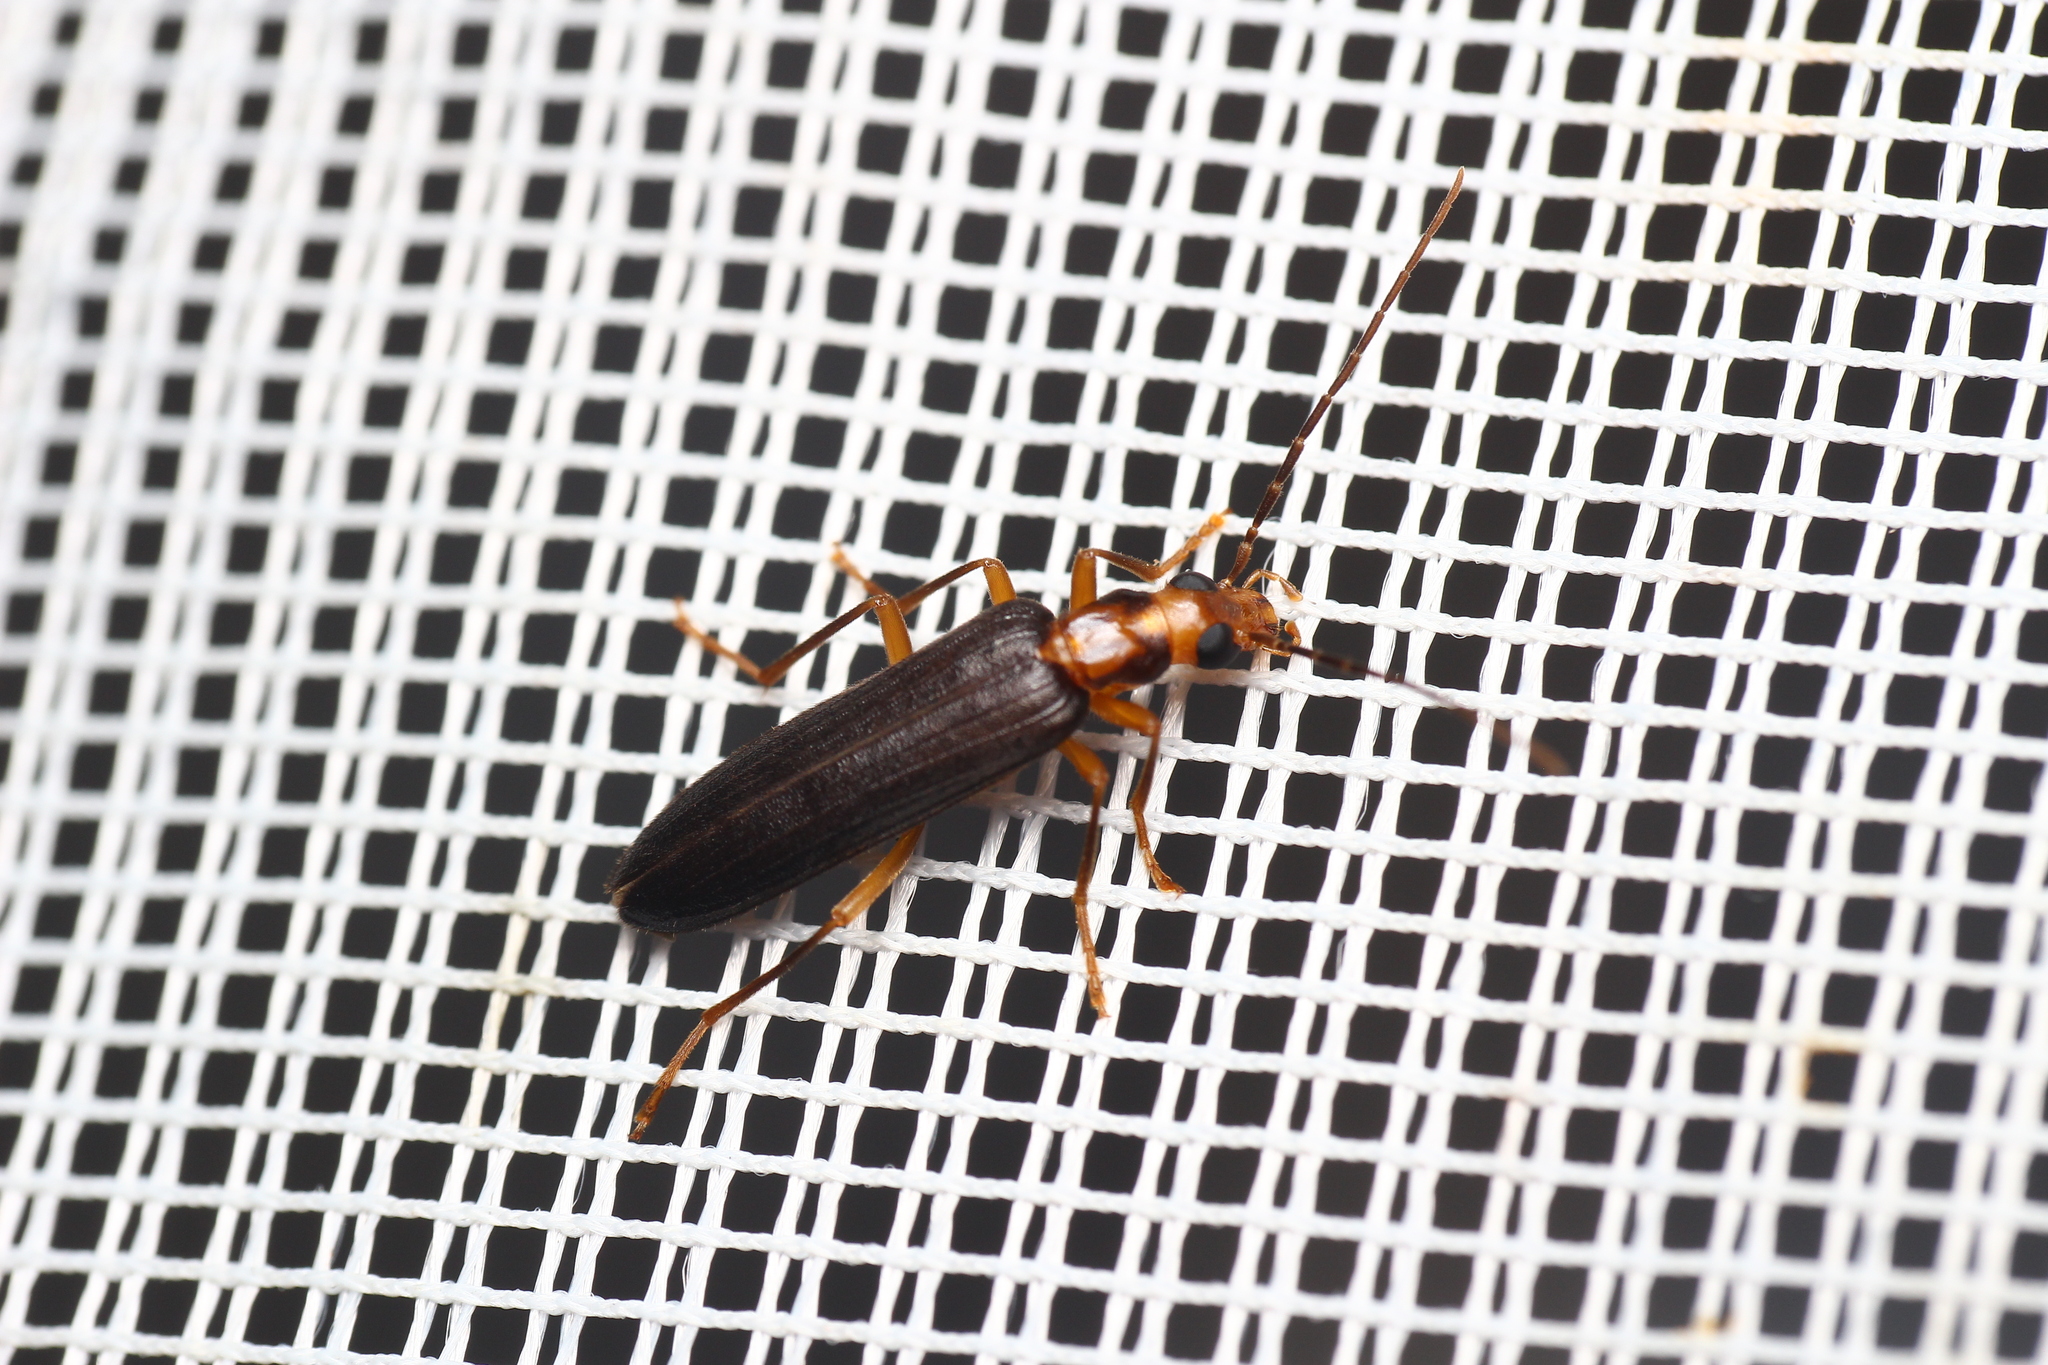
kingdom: Animalia
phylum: Arthropoda
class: Insecta
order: Coleoptera
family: Oedemeridae
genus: Nacerdes
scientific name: Nacerdes carniolica
